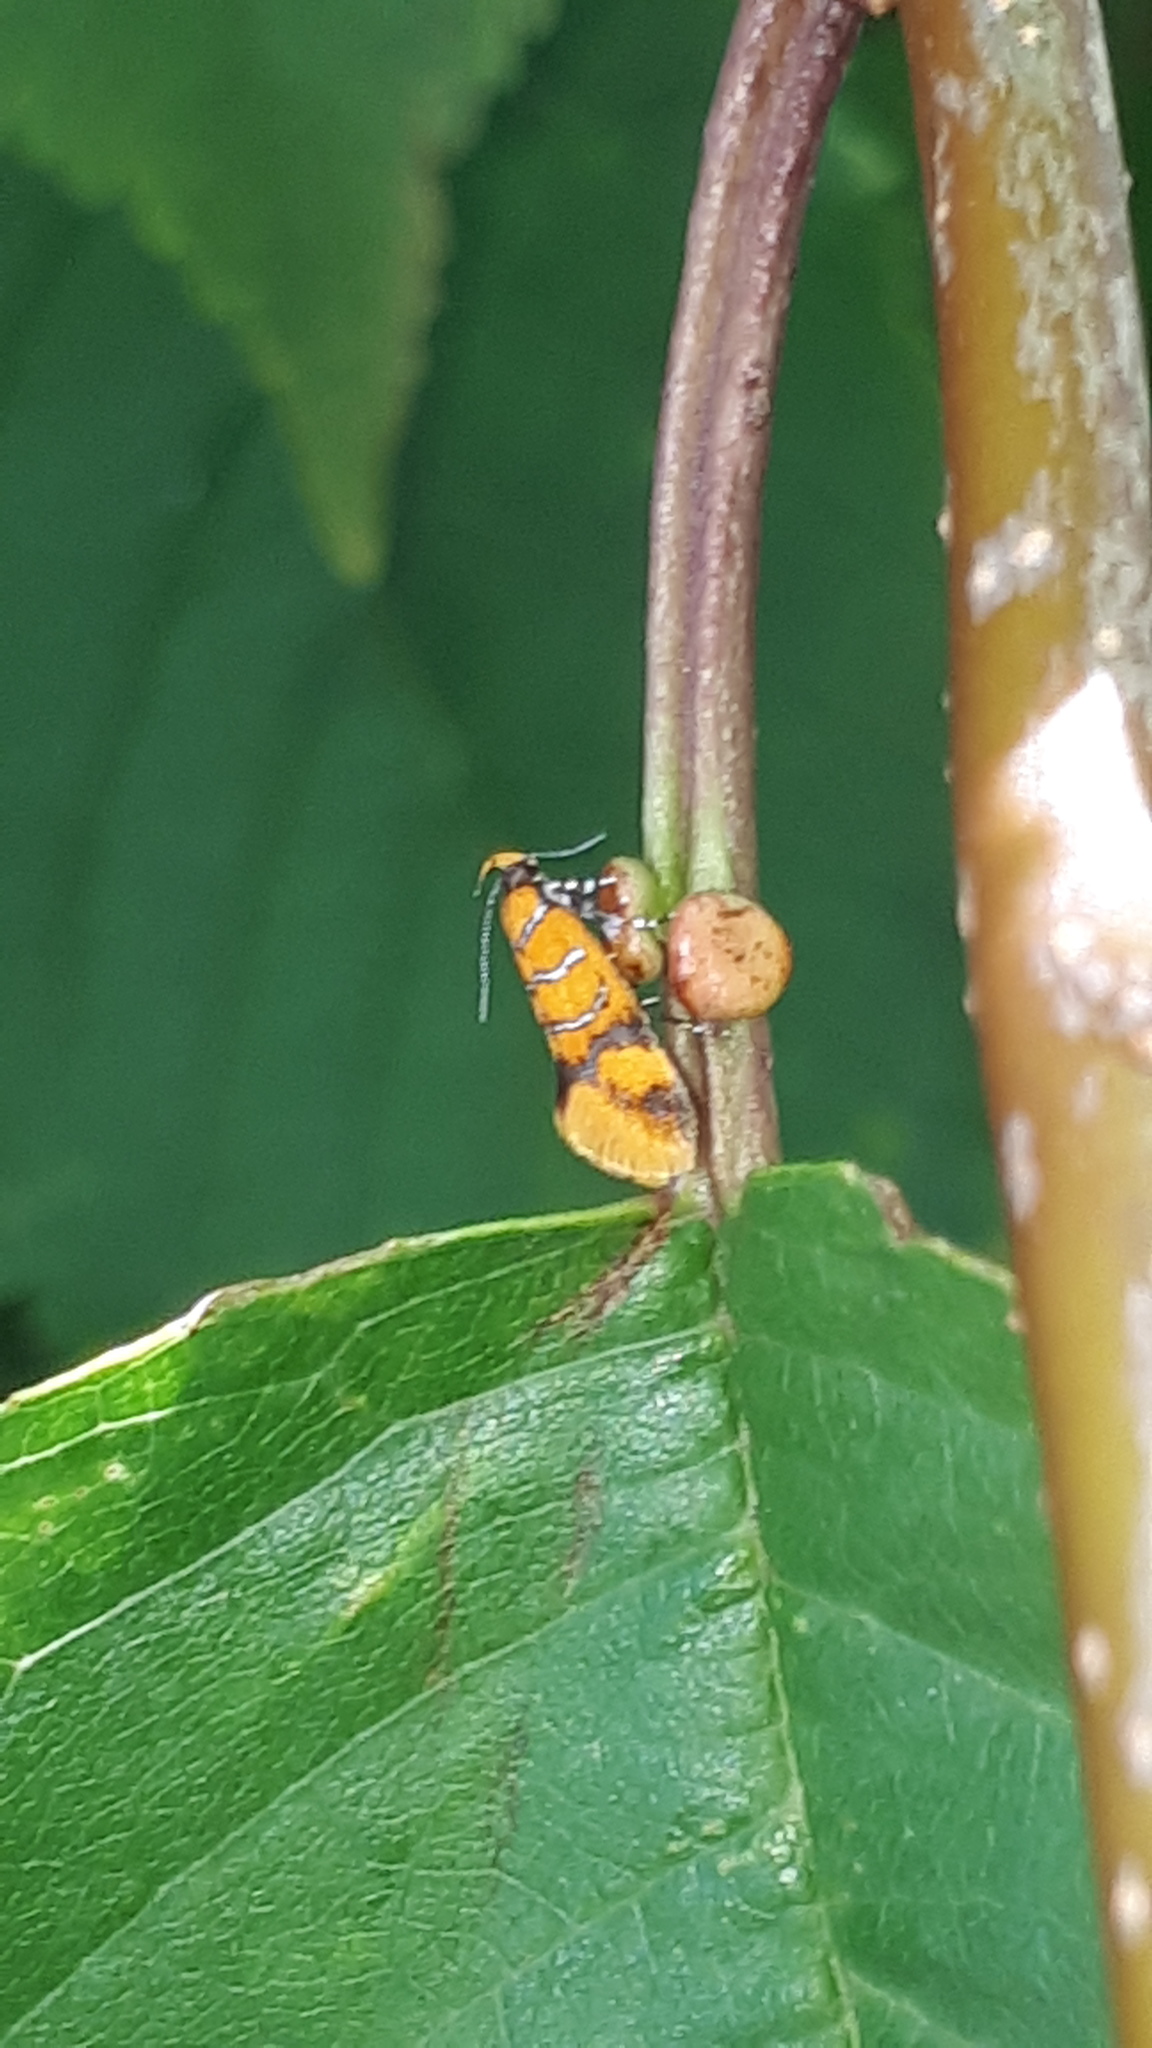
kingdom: Animalia
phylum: Arthropoda
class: Insecta
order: Lepidoptera
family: Oecophoridae
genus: Schiffermuelleria
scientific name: Schiffermuelleria procerella
